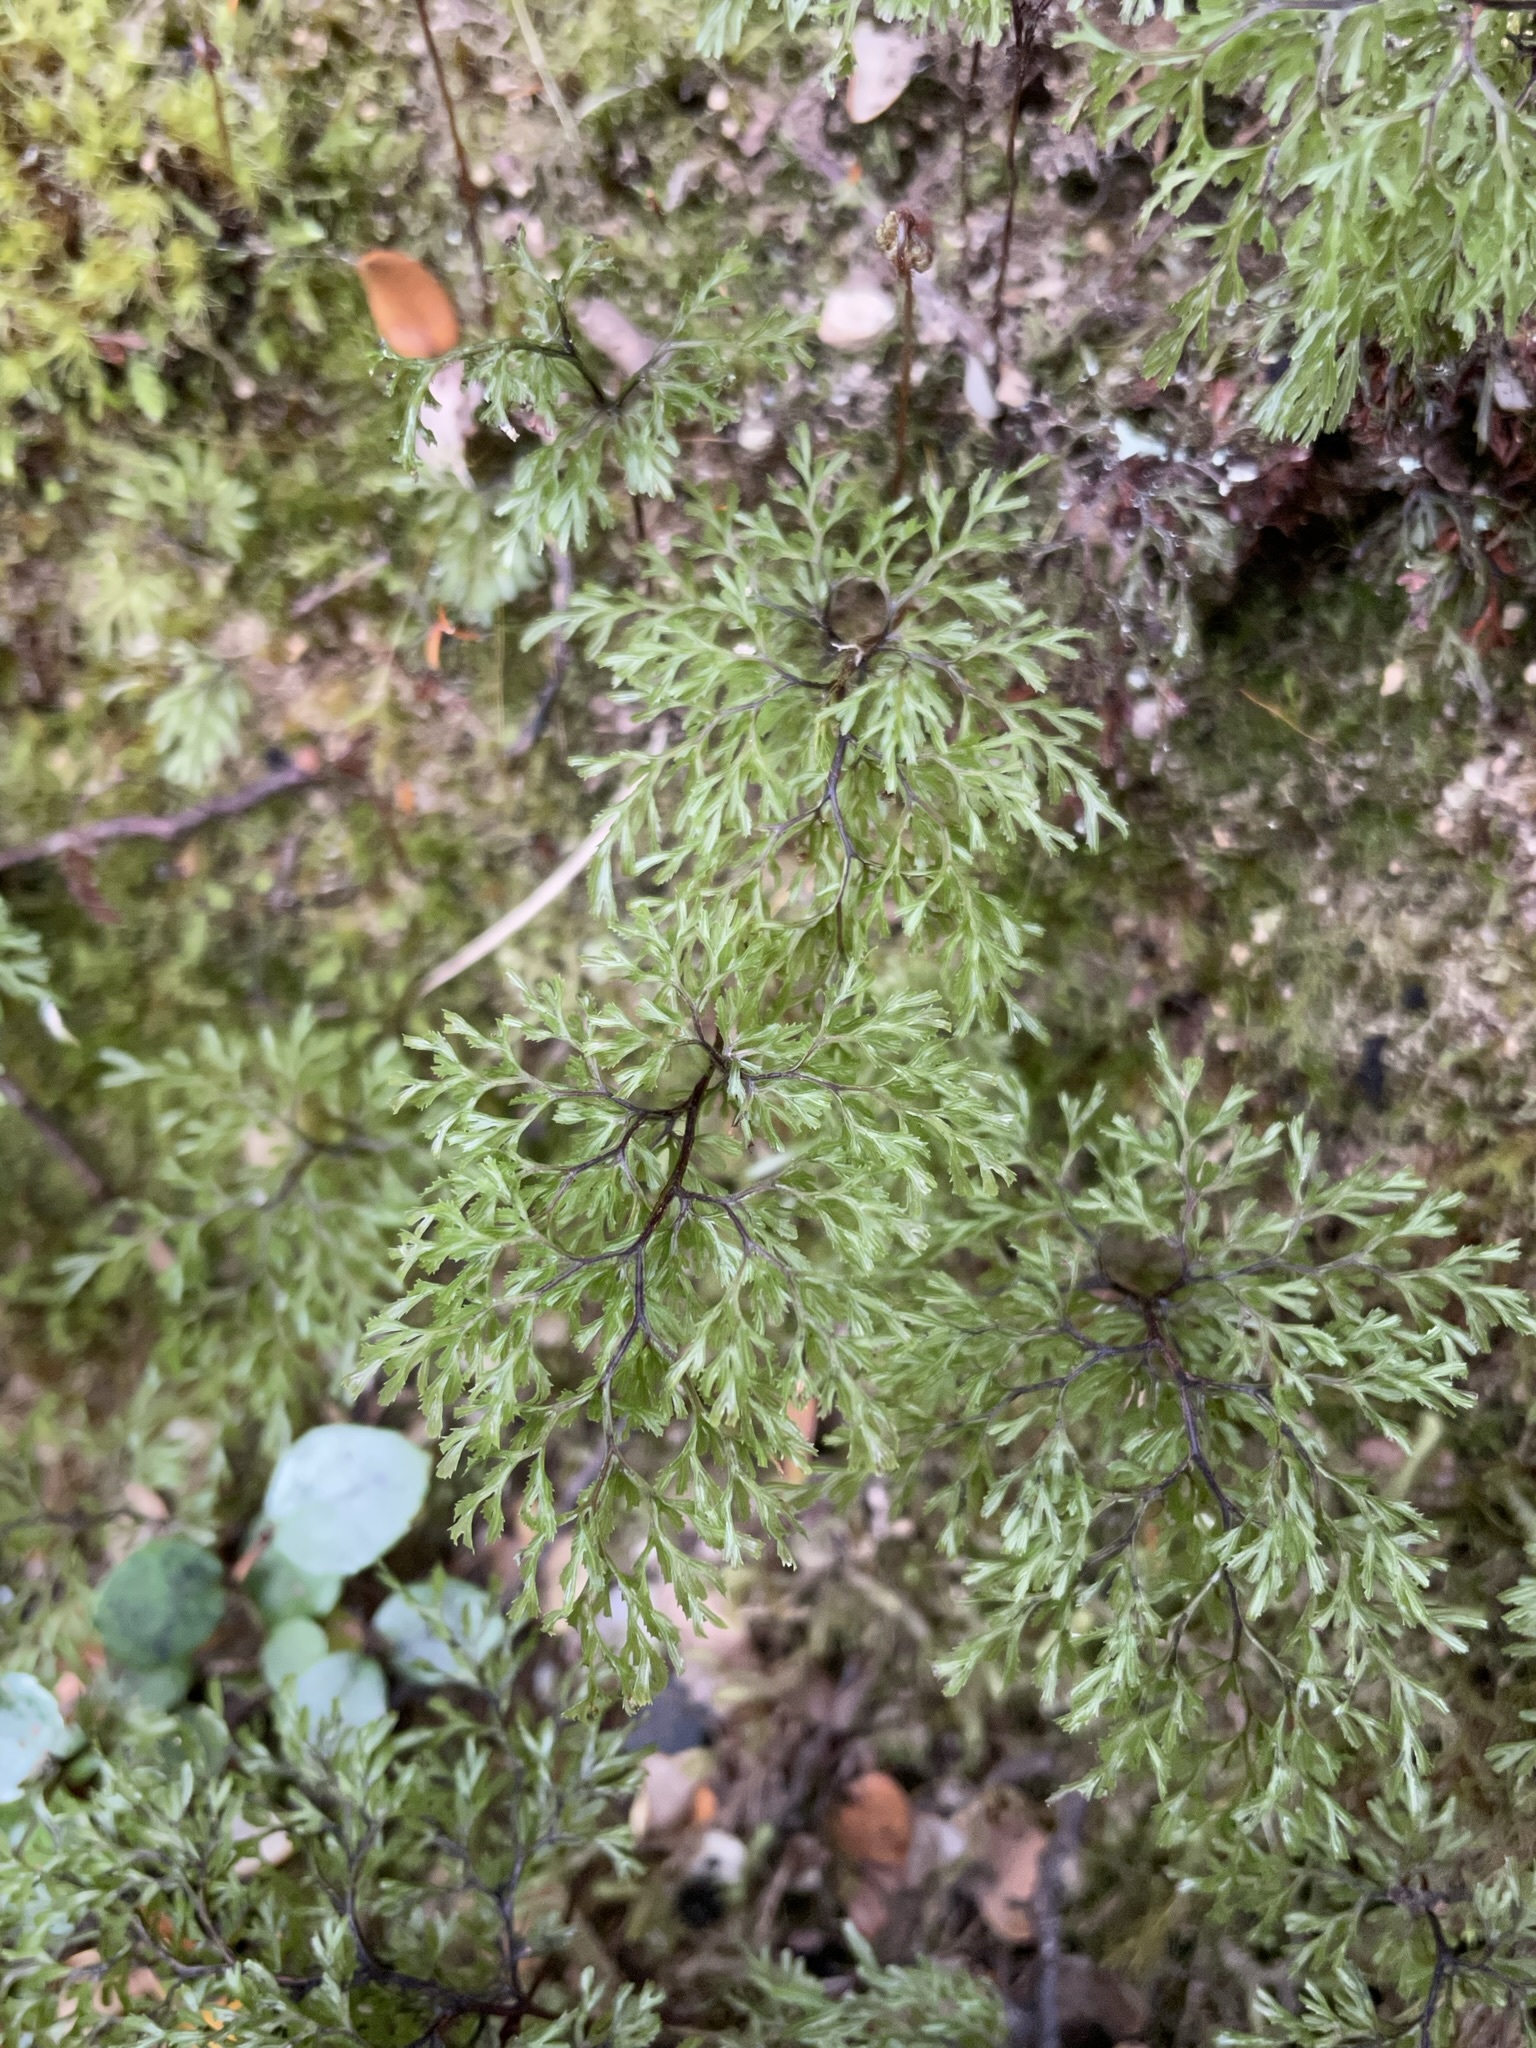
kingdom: Plantae
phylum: Tracheophyta
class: Polypodiopsida
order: Hymenophyllales
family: Hymenophyllaceae
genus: Hymenophyllum
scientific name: Hymenophyllum multifidum
